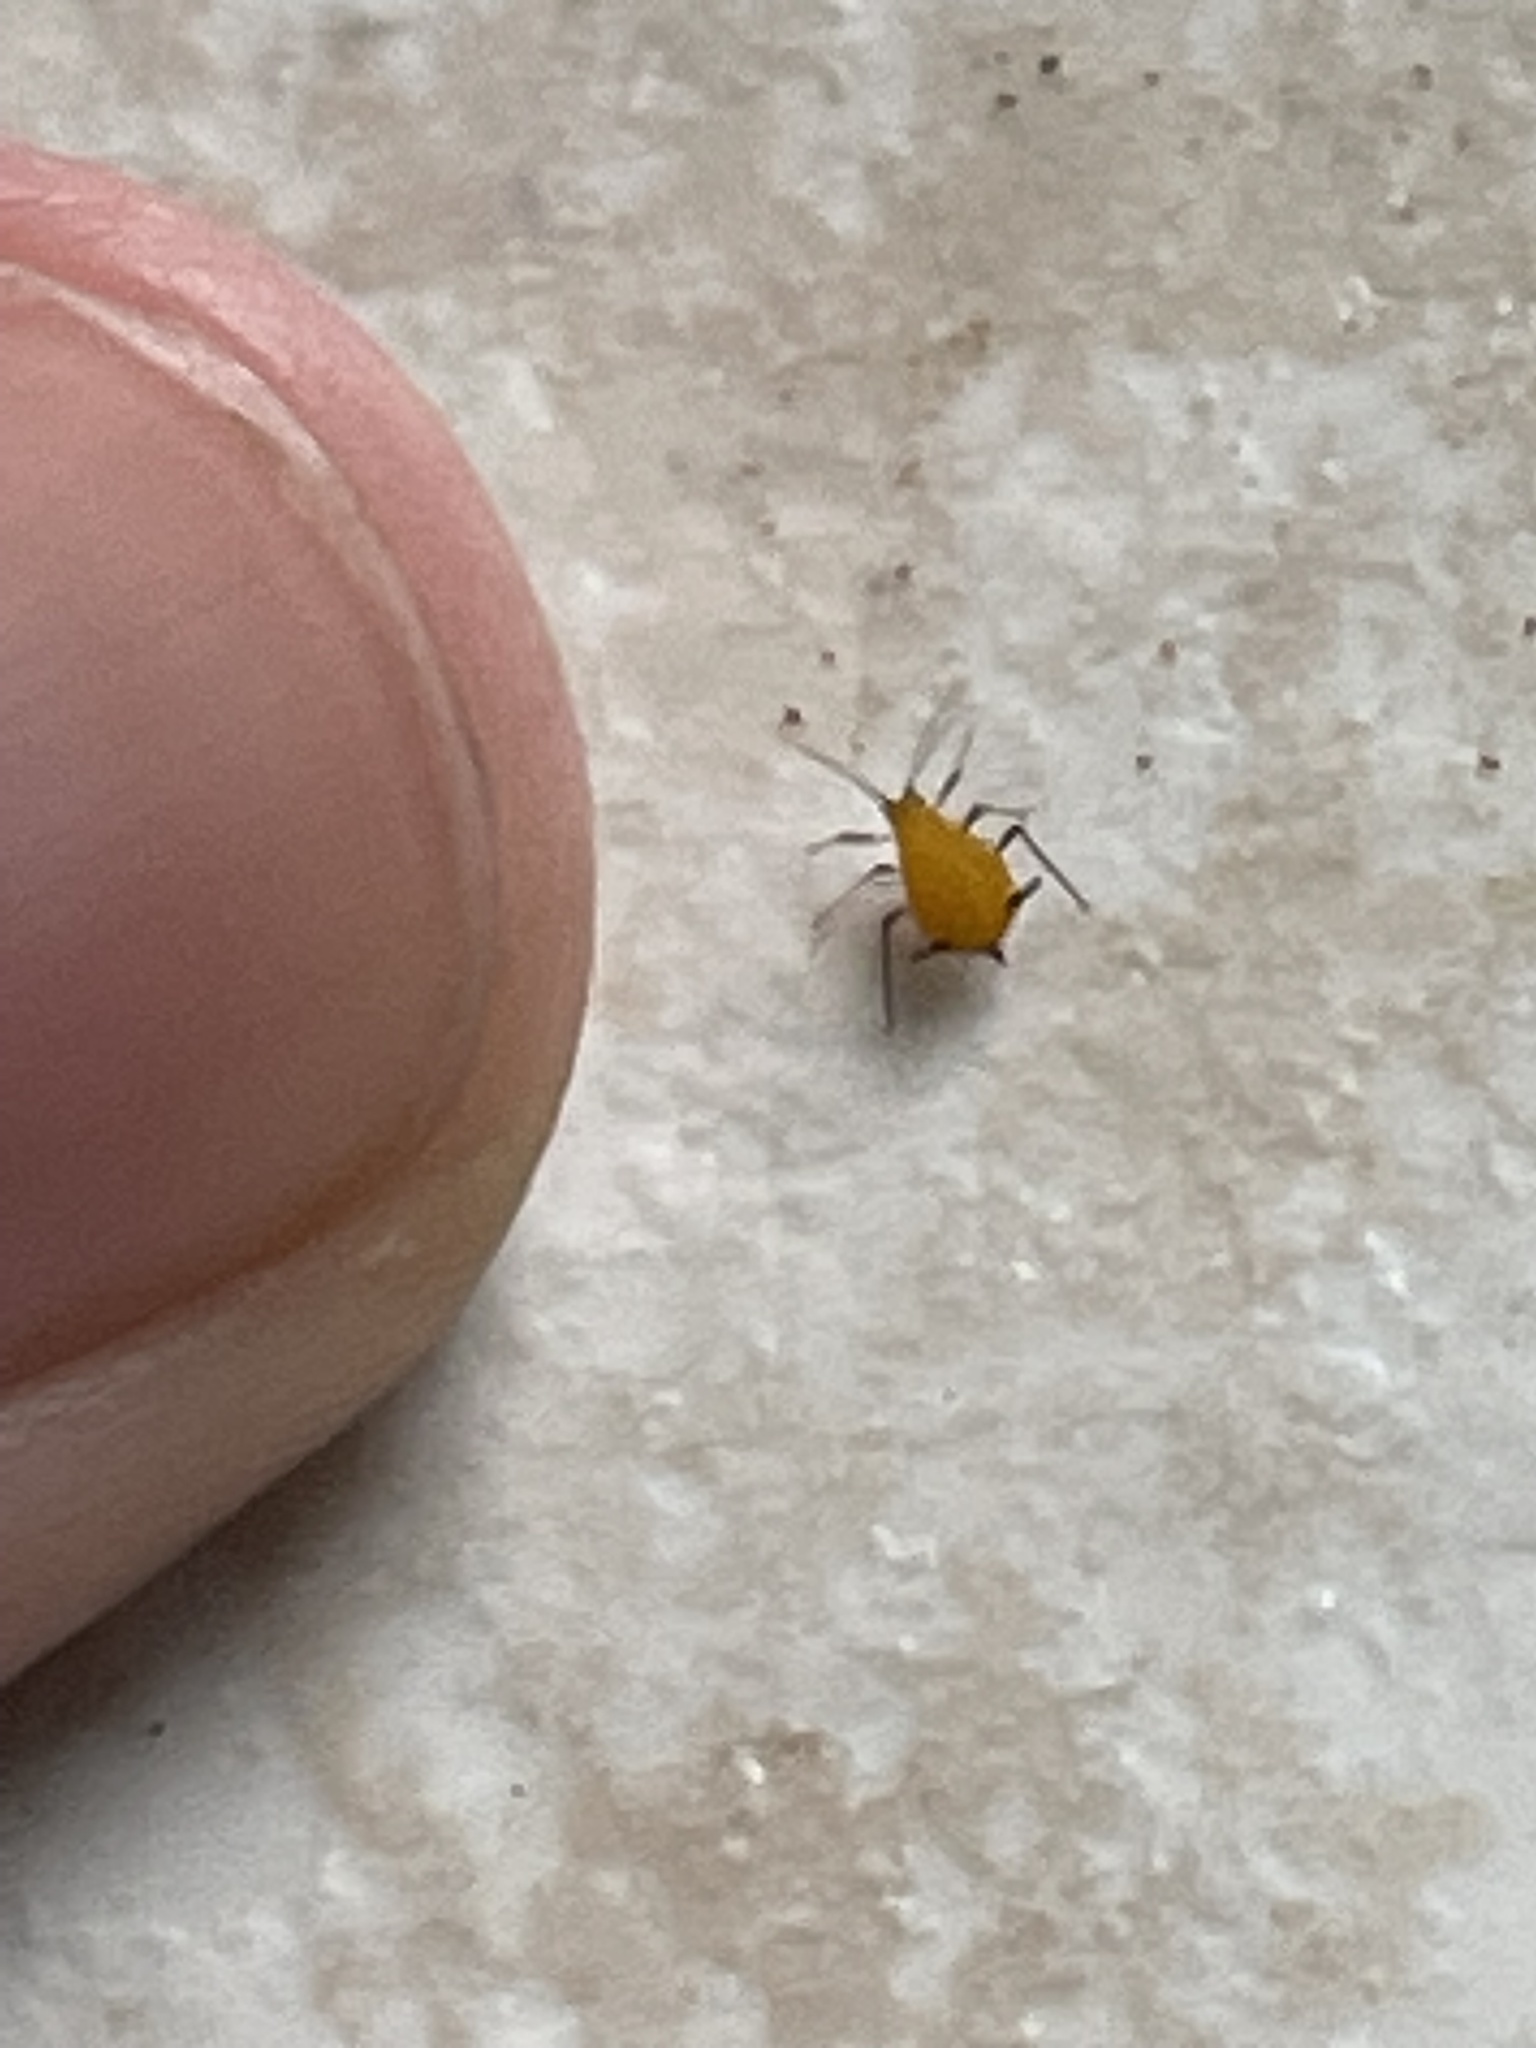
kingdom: Animalia
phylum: Arthropoda
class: Insecta
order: Hemiptera
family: Aphididae
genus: Aphis
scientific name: Aphis nerii
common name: Oleander aphid
